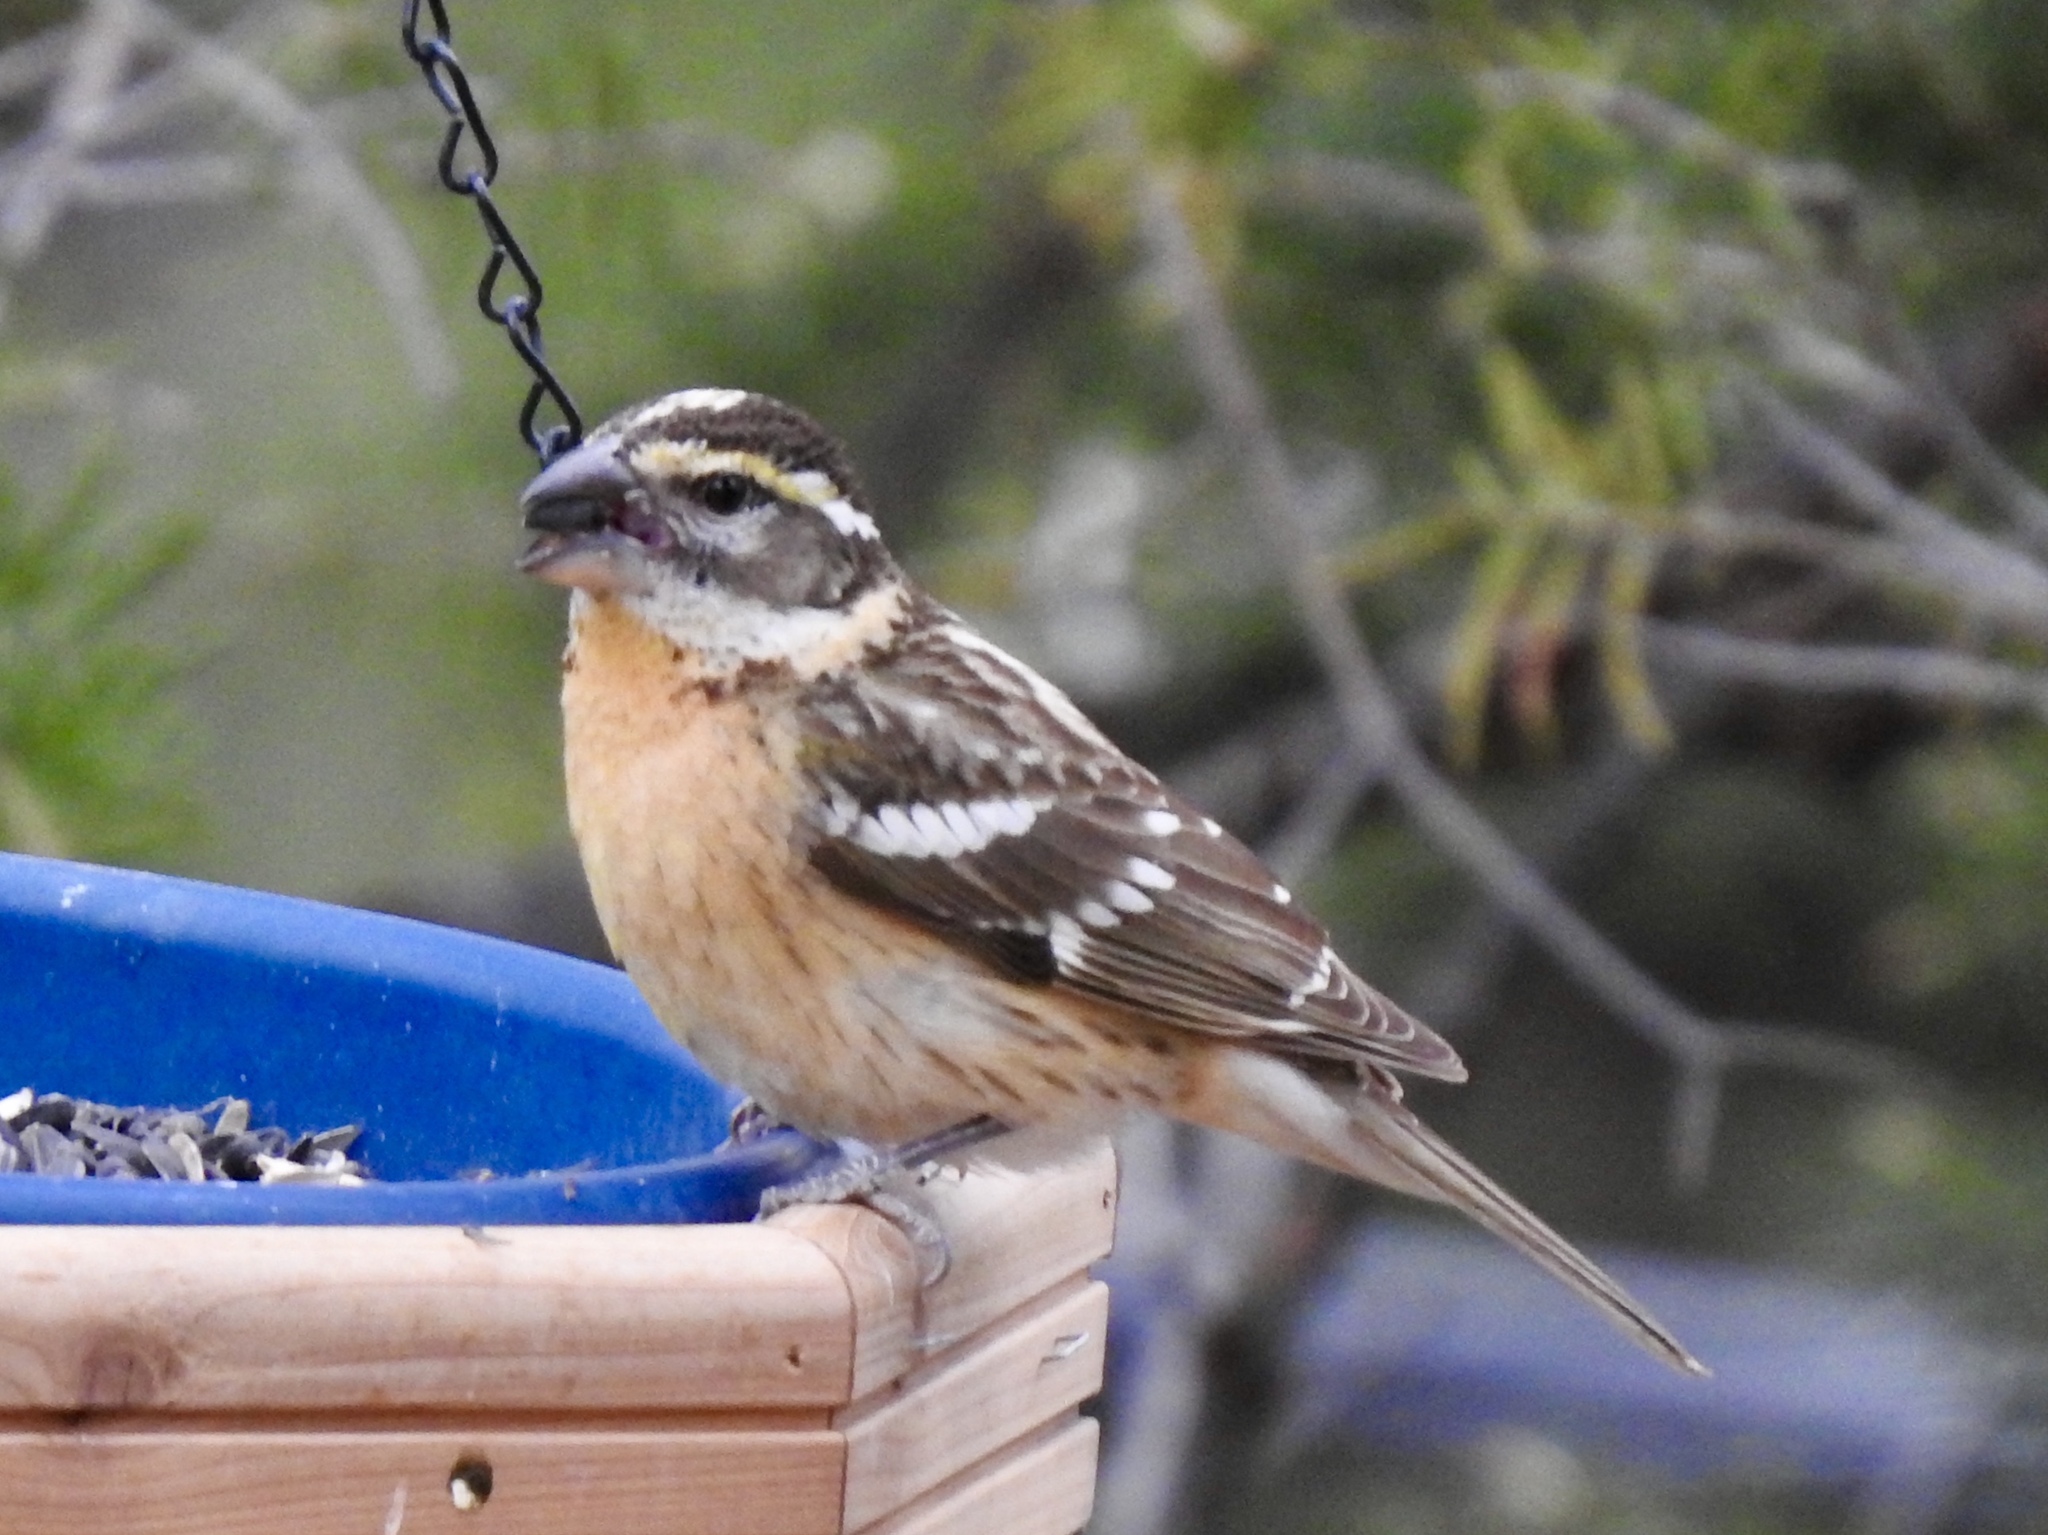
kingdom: Animalia
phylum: Chordata
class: Aves
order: Passeriformes
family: Cardinalidae
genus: Pheucticus
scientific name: Pheucticus melanocephalus
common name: Black-headed grosbeak
